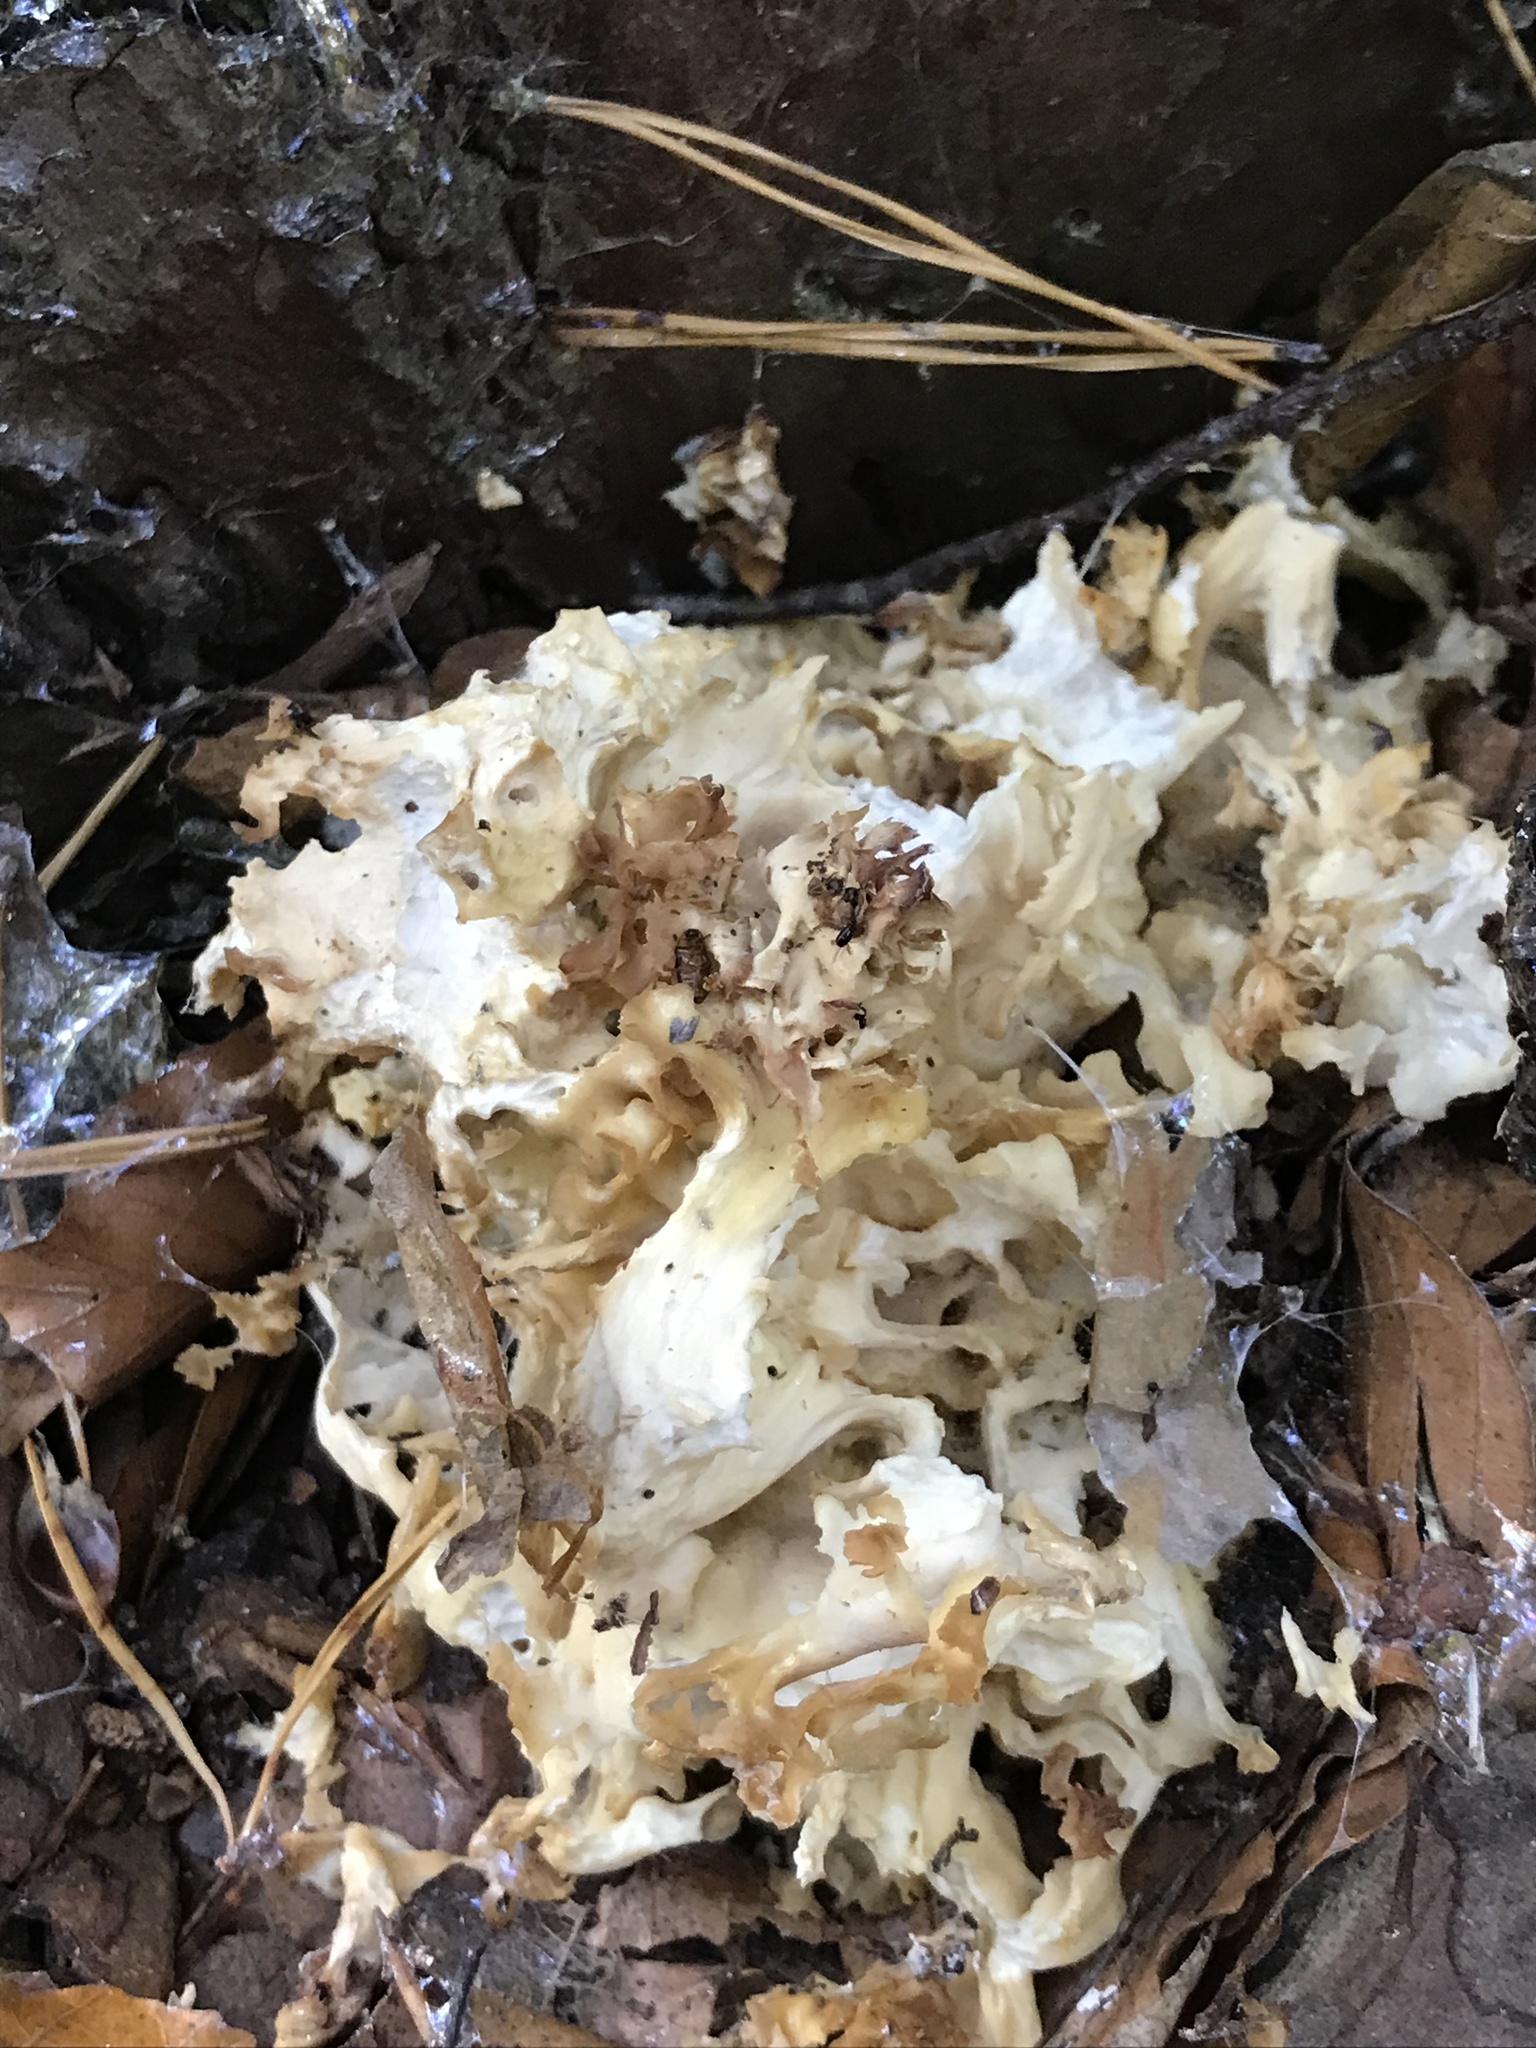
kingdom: Fungi
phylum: Basidiomycota
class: Agaricomycetes
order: Polyporales
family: Sparassidaceae
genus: Sparassis
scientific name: Sparassis crispa
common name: Brain fungus
